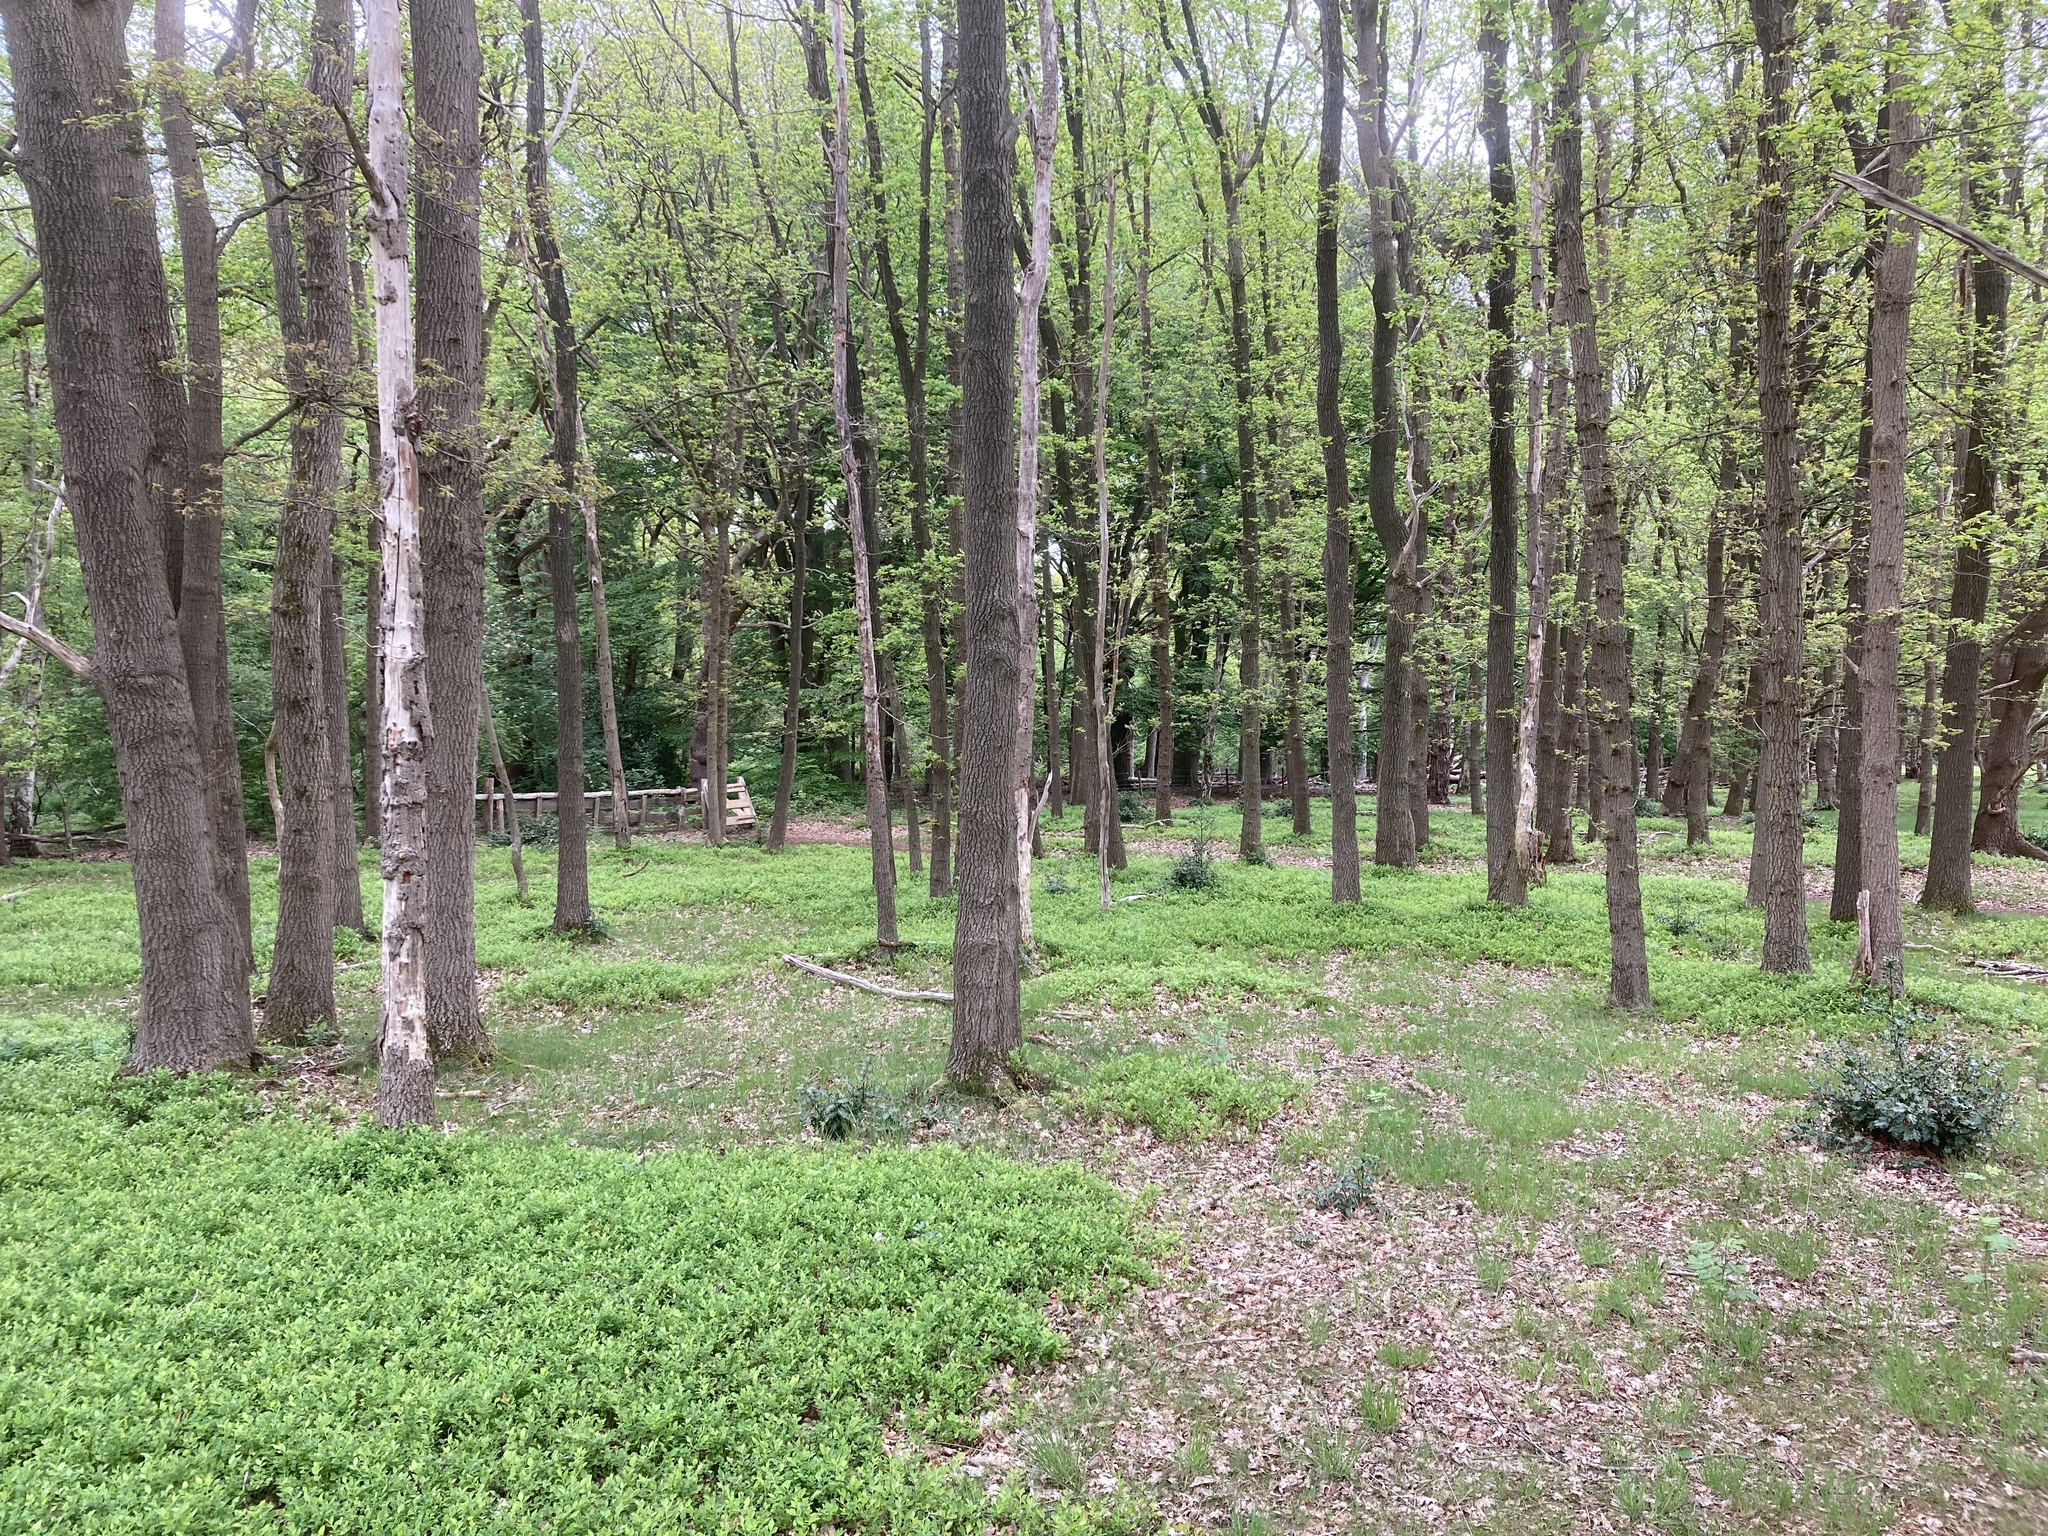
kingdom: Plantae
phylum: Tracheophyta
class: Magnoliopsida
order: Ericales
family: Ericaceae
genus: Vaccinium
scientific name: Vaccinium myrtillus
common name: Bilberry
